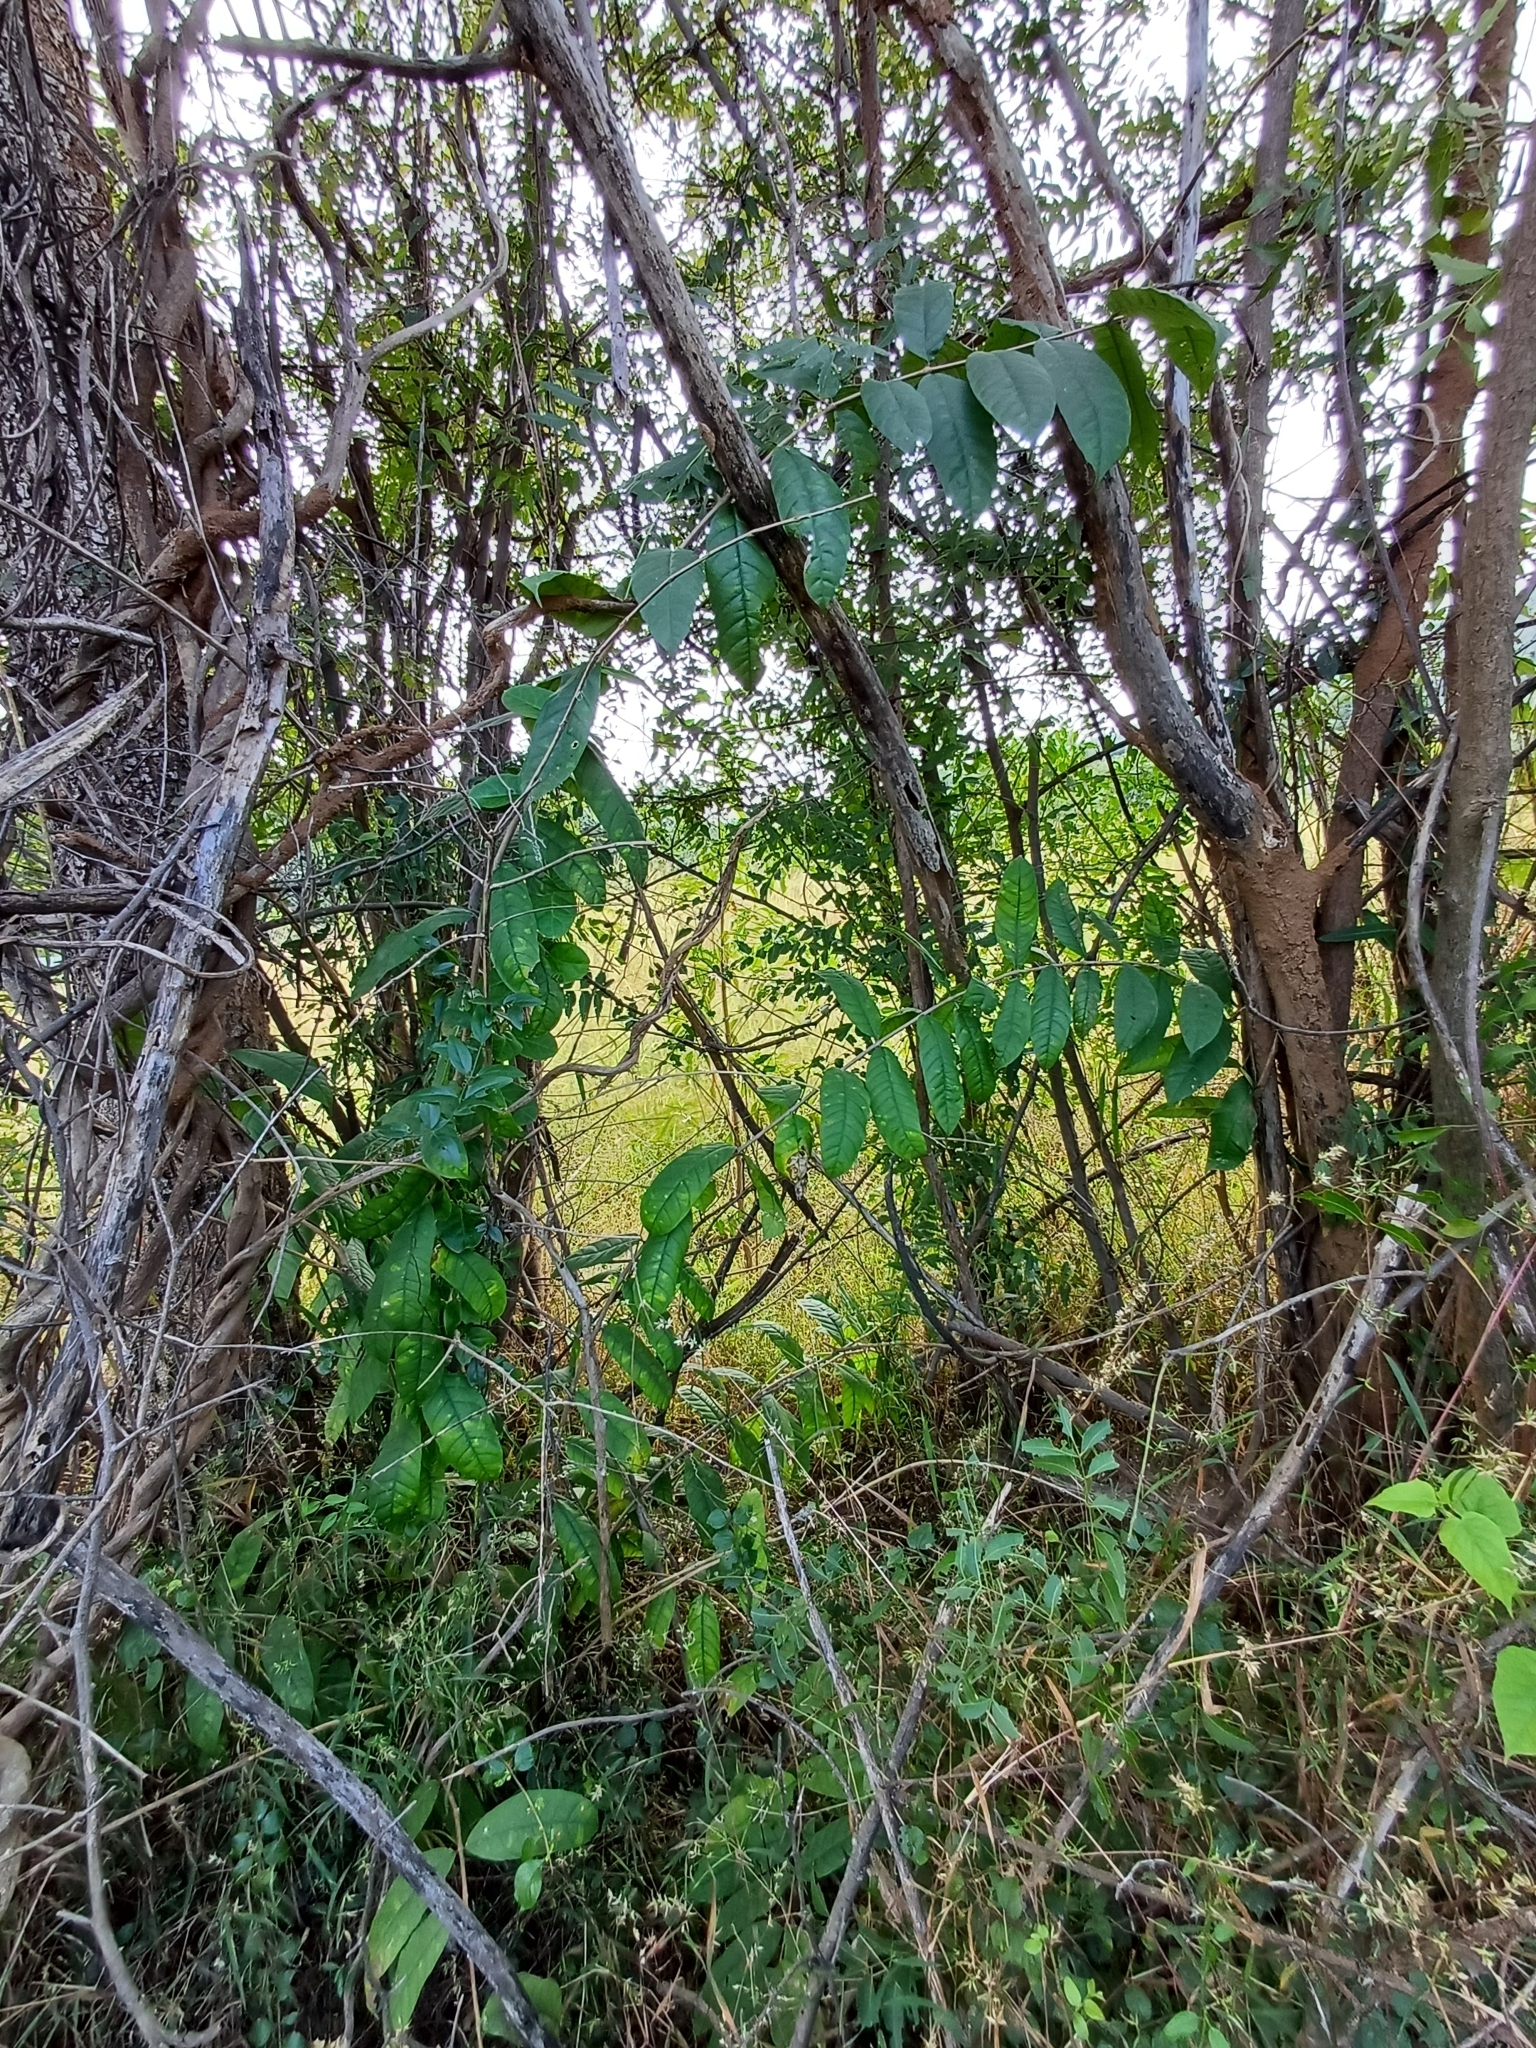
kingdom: Plantae
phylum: Tracheophyta
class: Magnoliopsida
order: Gentianales
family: Apocynaceae
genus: Wrightia
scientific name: Wrightia tinctoria
